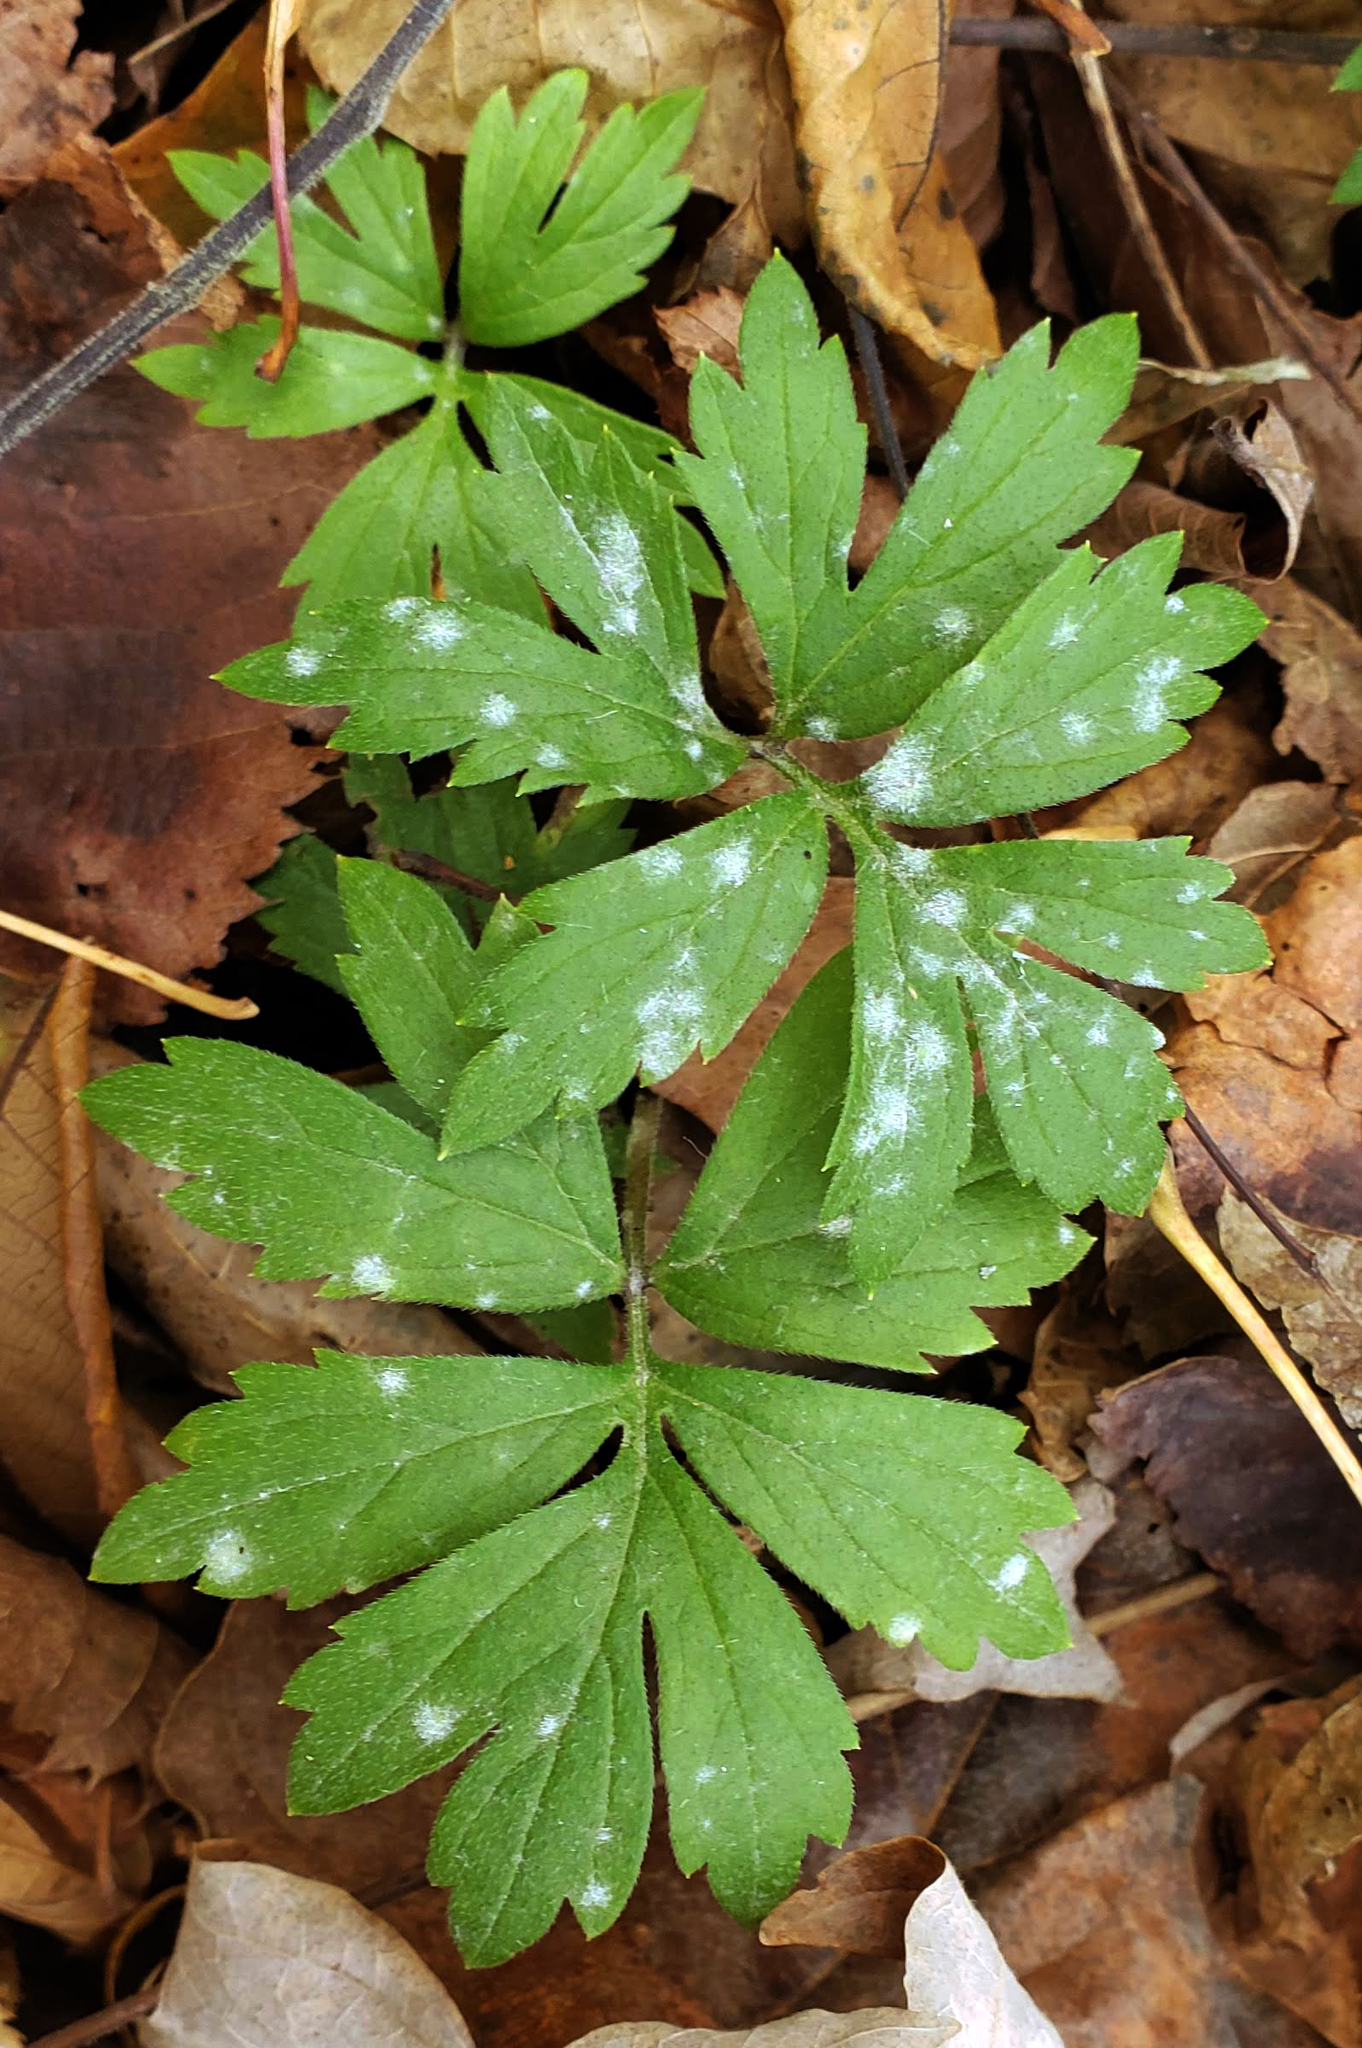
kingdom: Plantae
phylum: Tracheophyta
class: Magnoliopsida
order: Boraginales
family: Hydrophyllaceae
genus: Hydrophyllum
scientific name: Hydrophyllum virginianum
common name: Virginia waterleaf
